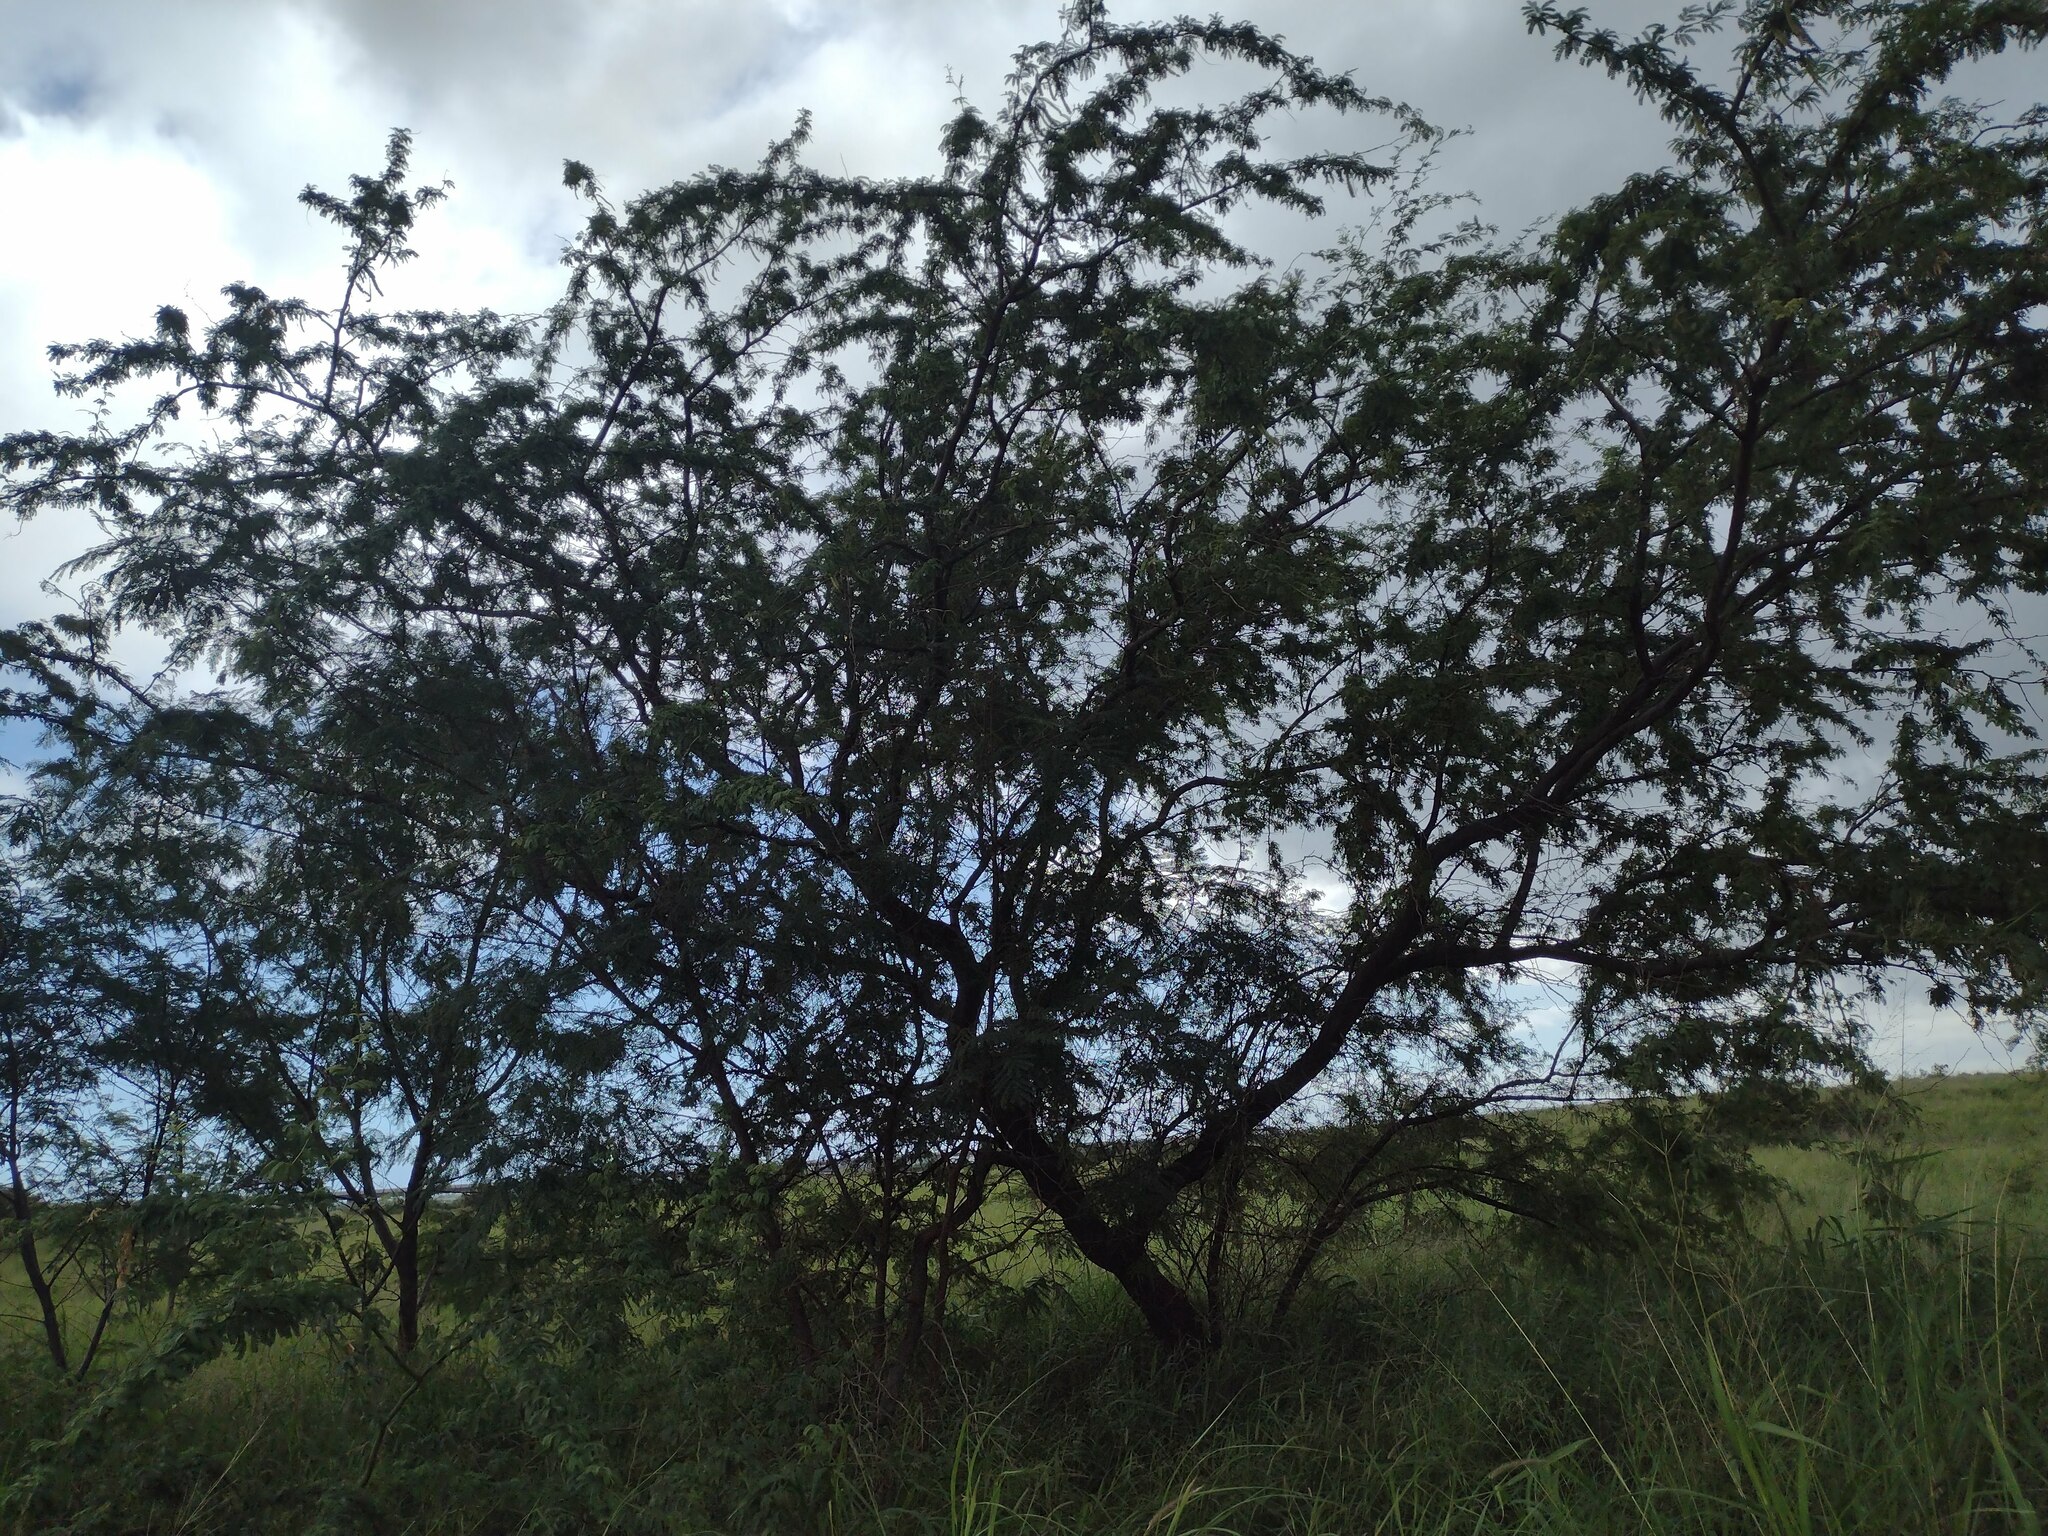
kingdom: Plantae
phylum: Tracheophyta
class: Magnoliopsida
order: Fabales
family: Fabaceae
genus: Prosopis
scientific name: Prosopis pallida
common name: Mesquite
